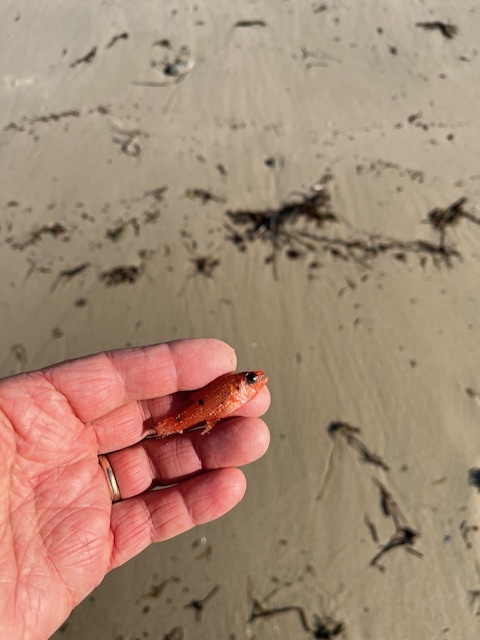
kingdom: Animalia
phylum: Chordata
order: Perciformes
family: Apogonidae
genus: Apogon
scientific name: Apogon pseudomaculatus
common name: Twospot cardinalfish
